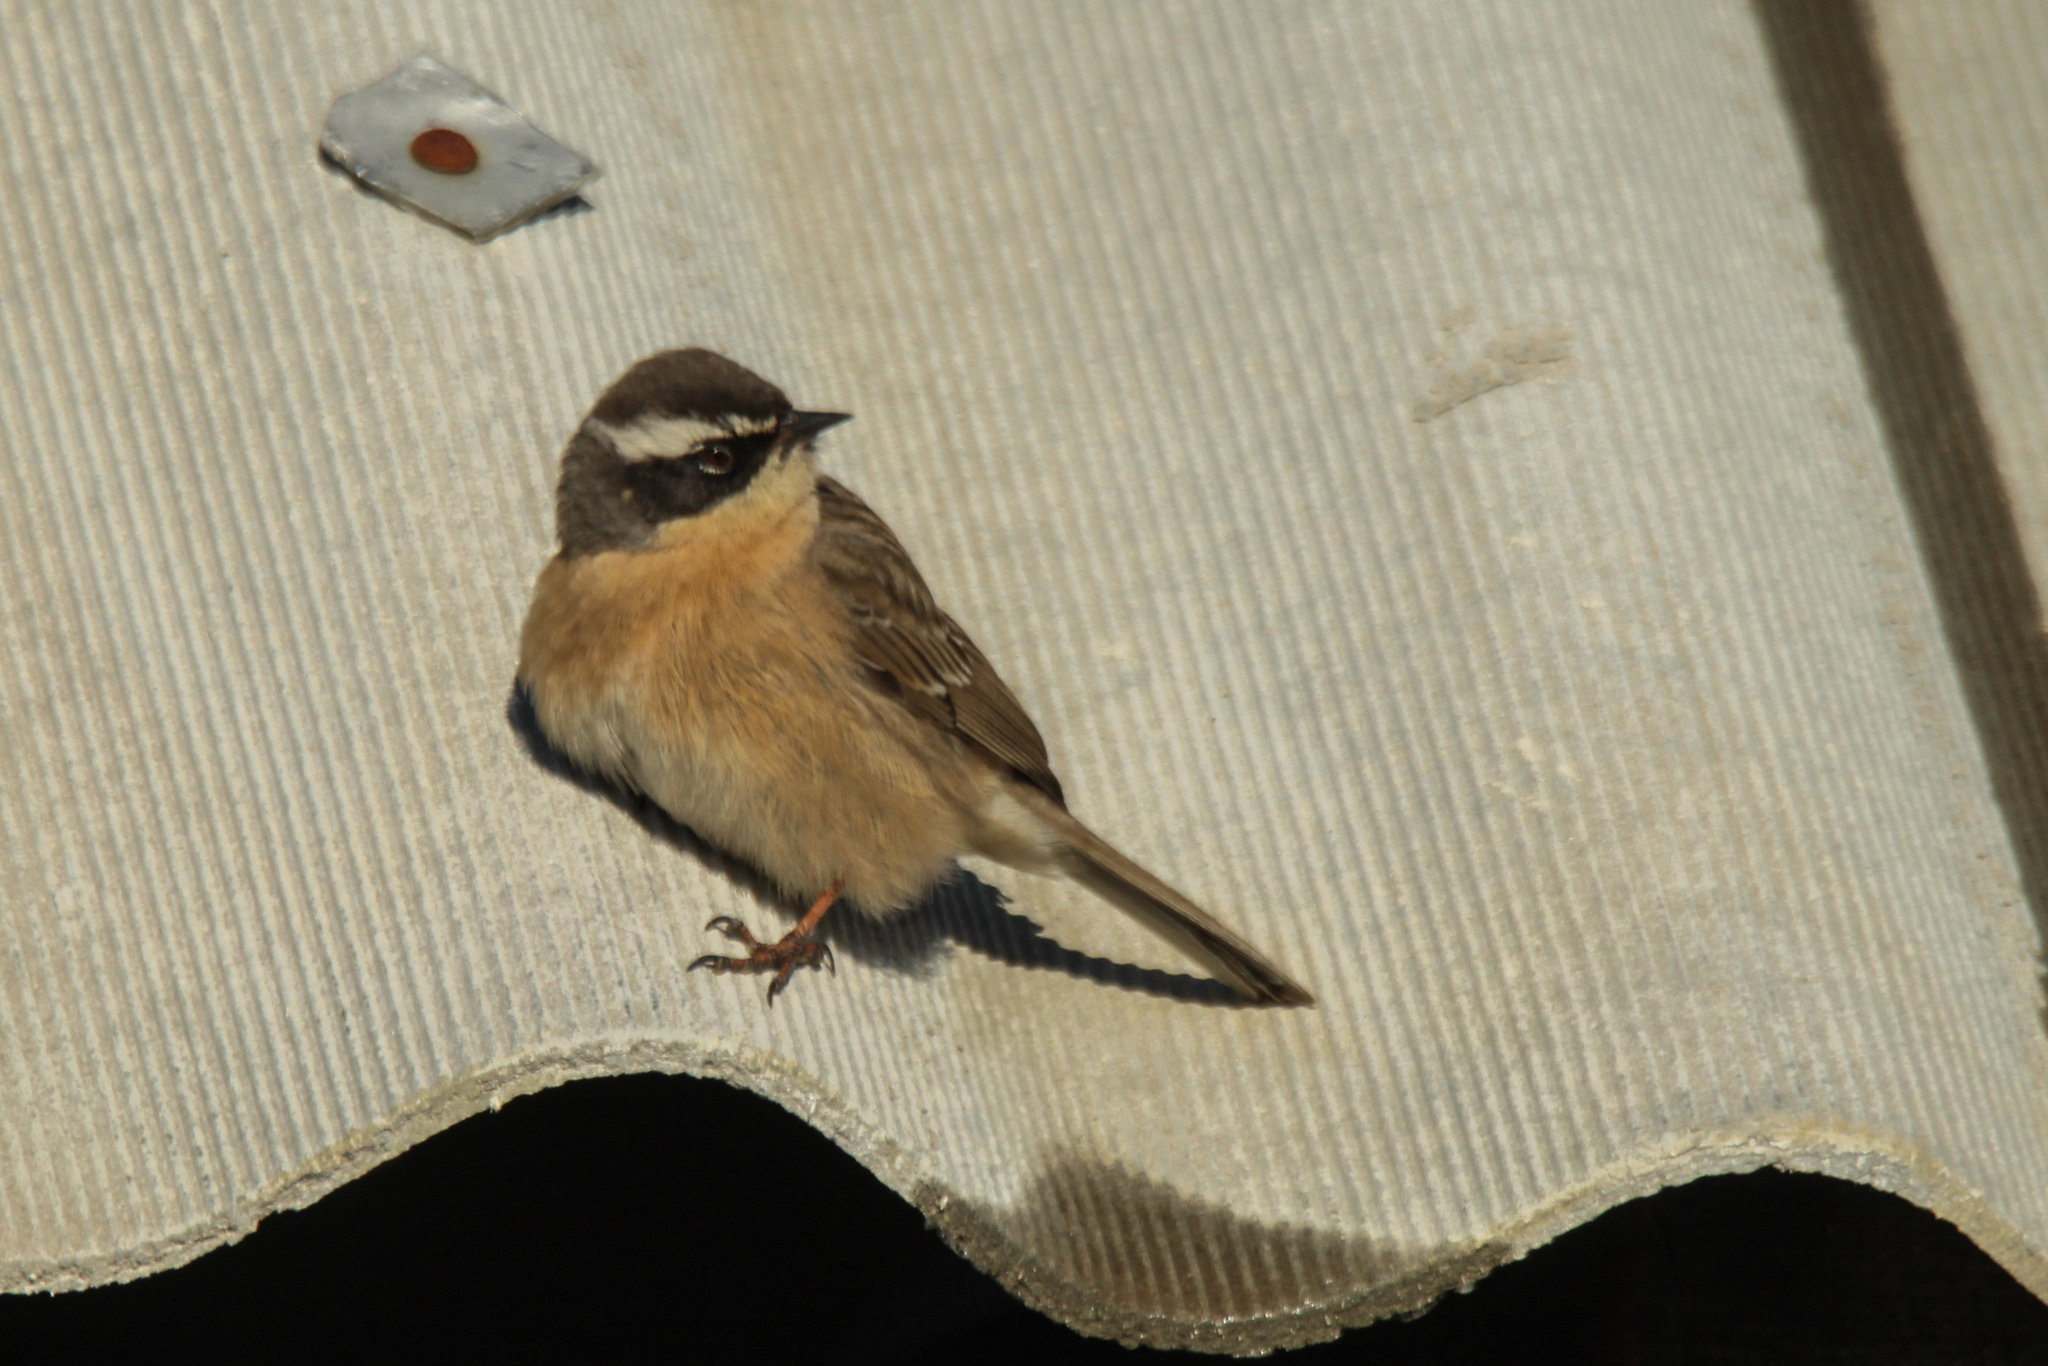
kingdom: Animalia
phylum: Chordata
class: Aves
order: Passeriformes
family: Prunellidae
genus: Prunella
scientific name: Prunella fulvescens
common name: Brown accentor
